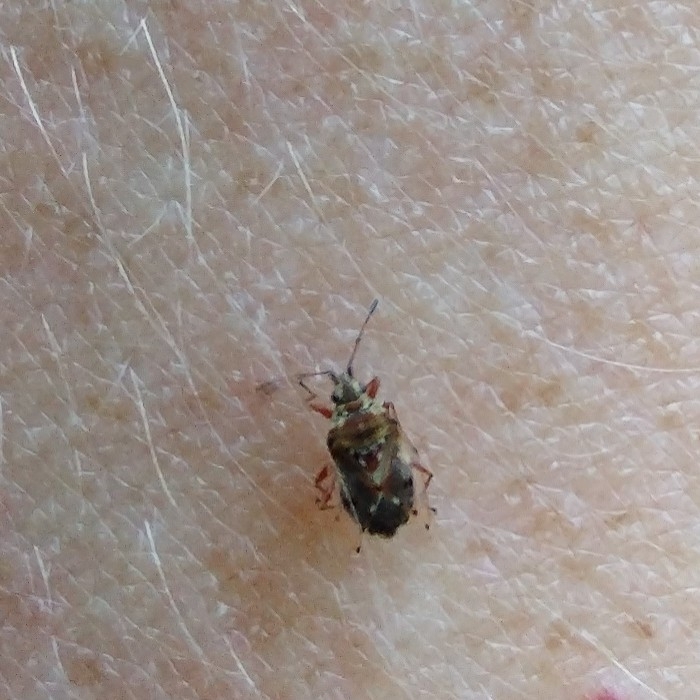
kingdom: Animalia
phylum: Arthropoda
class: Insecta
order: Hemiptera
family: Lygaeidae
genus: Kleidocerys
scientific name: Kleidocerys resedae
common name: Birch catkin bug
